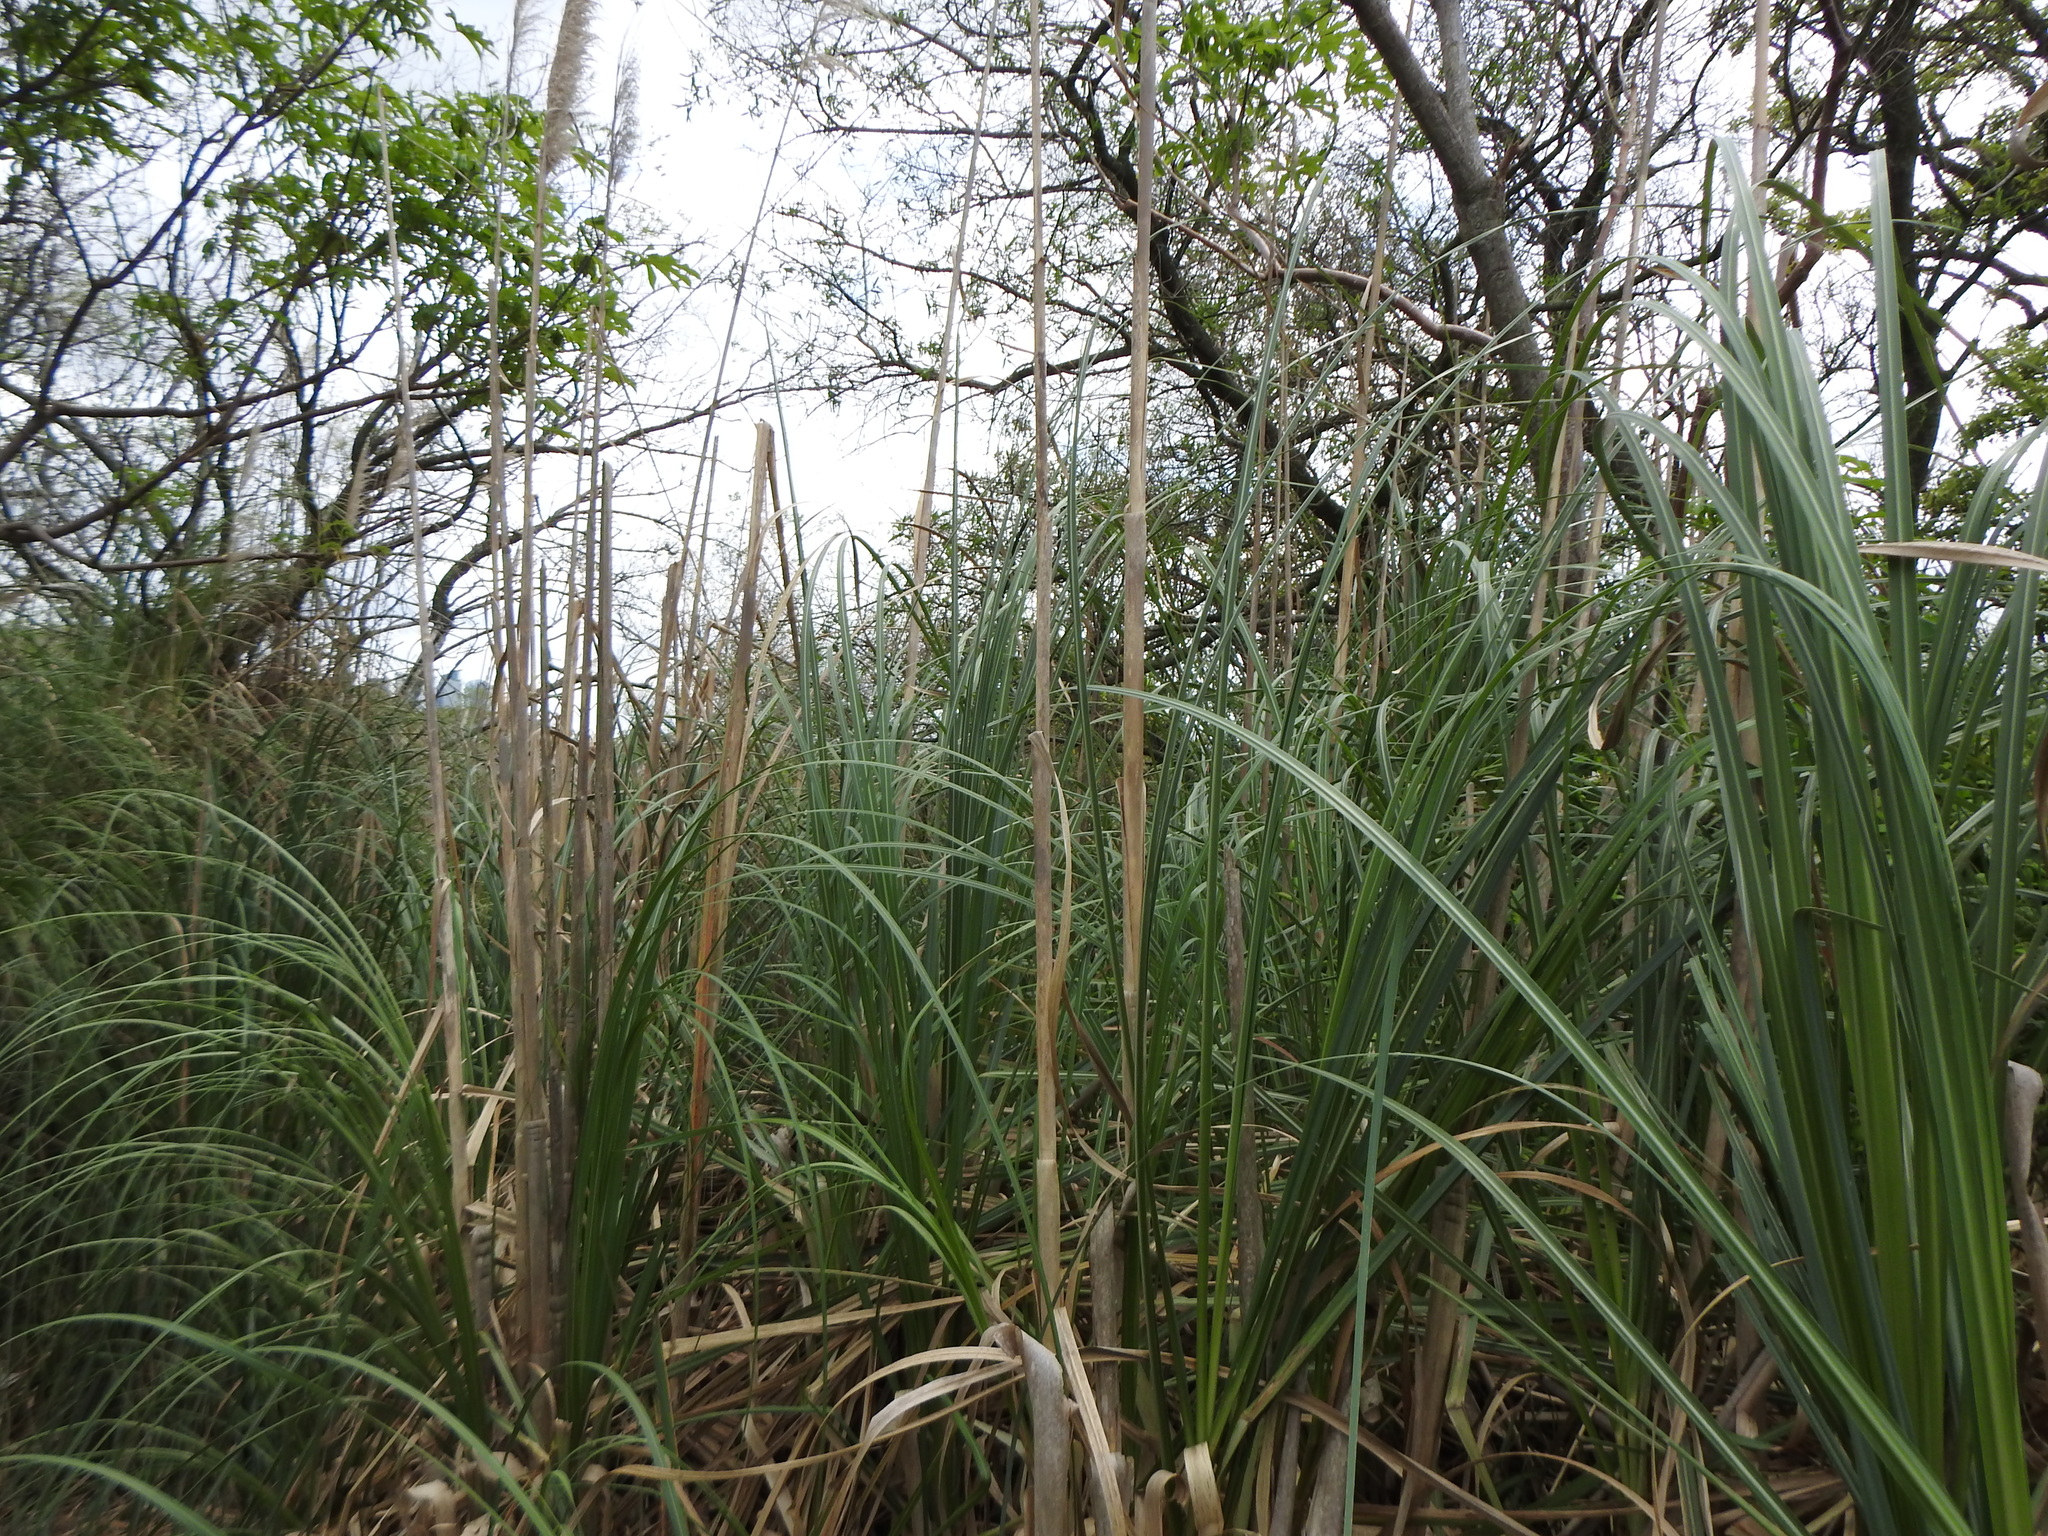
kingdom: Plantae
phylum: Tracheophyta
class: Liliopsida
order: Poales
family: Poaceae
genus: Cortaderia
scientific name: Cortaderia selloana
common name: Uruguayan pampas grass
